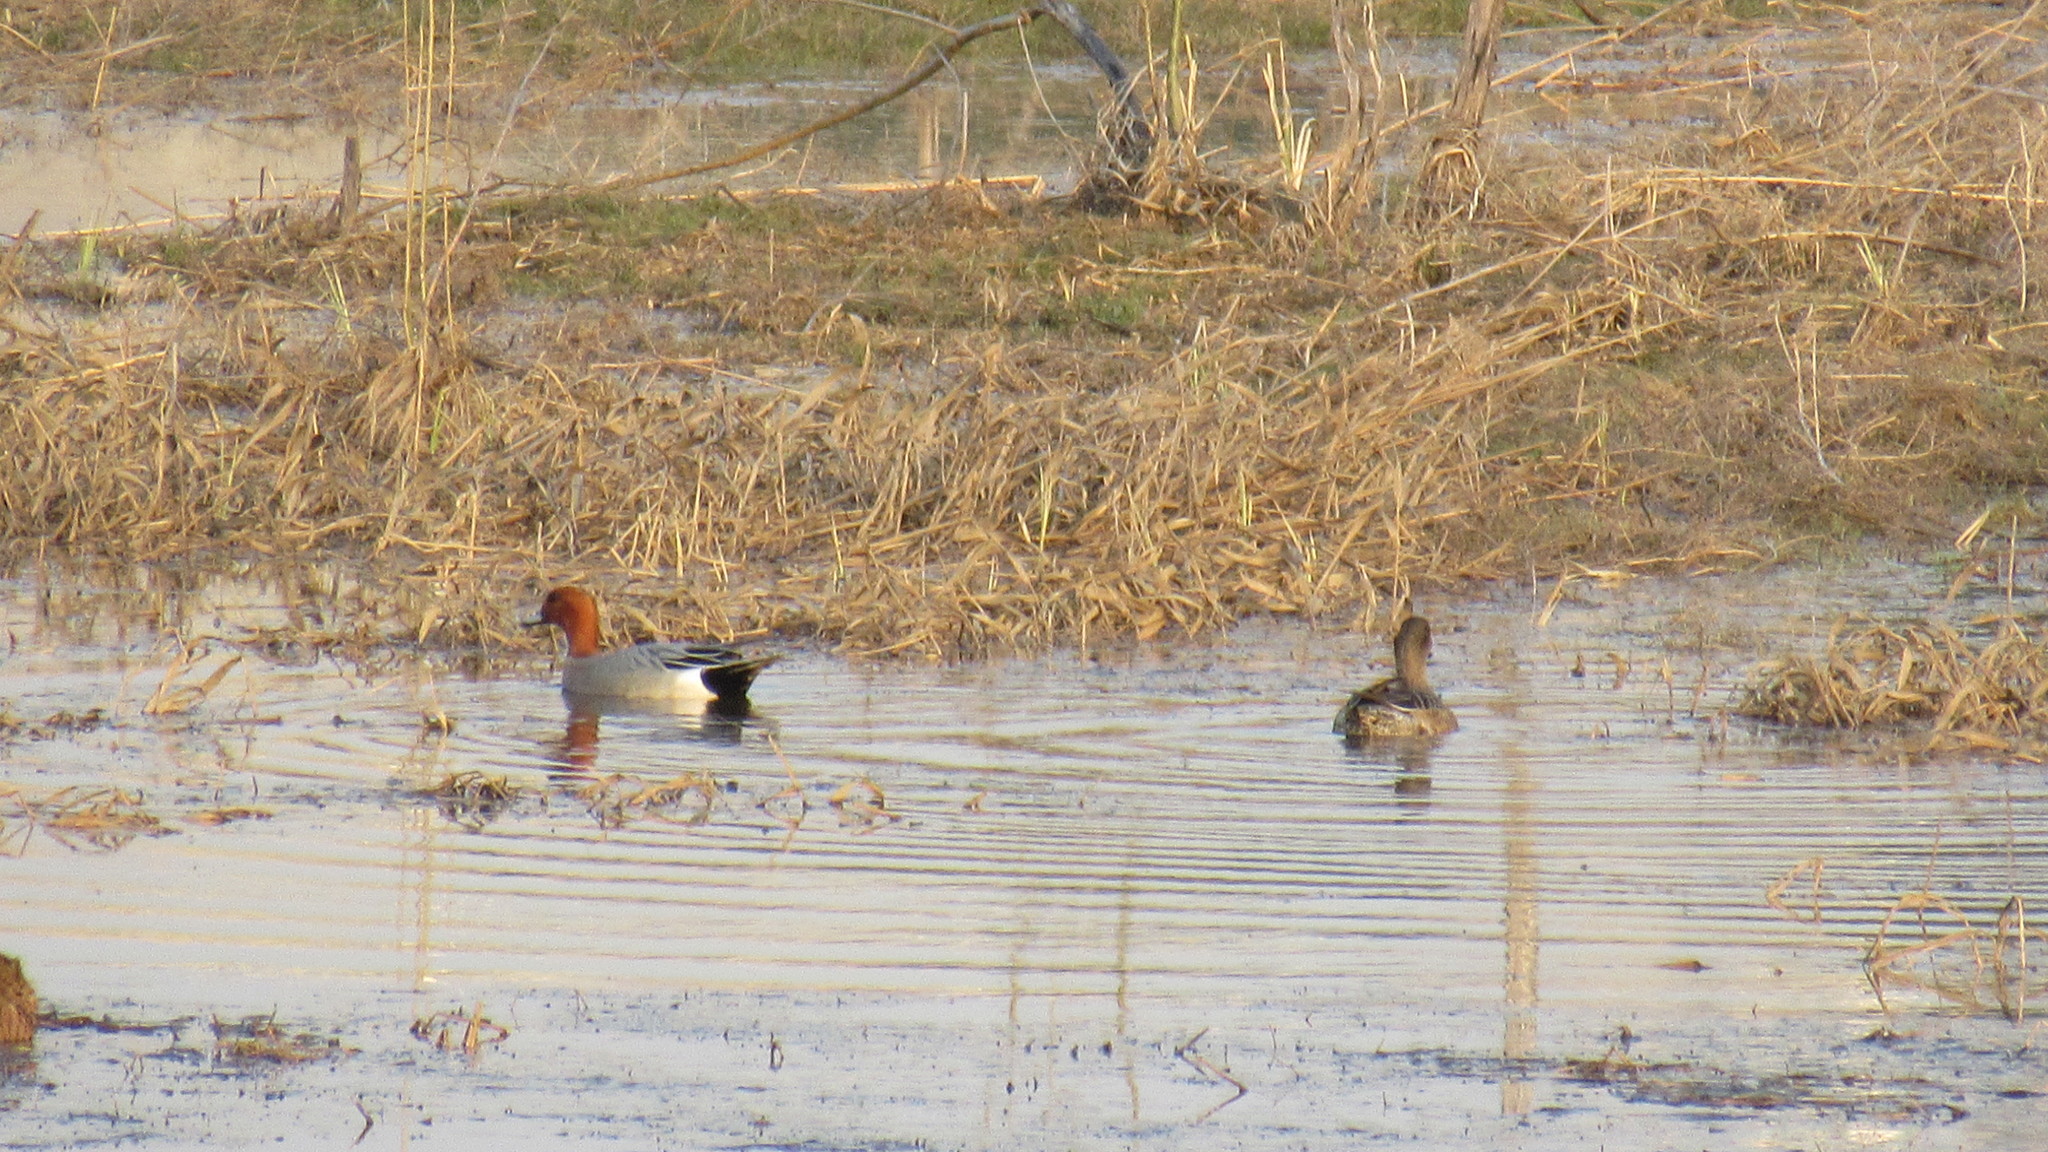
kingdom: Animalia
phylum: Chordata
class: Aves
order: Anseriformes
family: Anatidae
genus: Mareca
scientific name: Mareca penelope
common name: Eurasian wigeon
